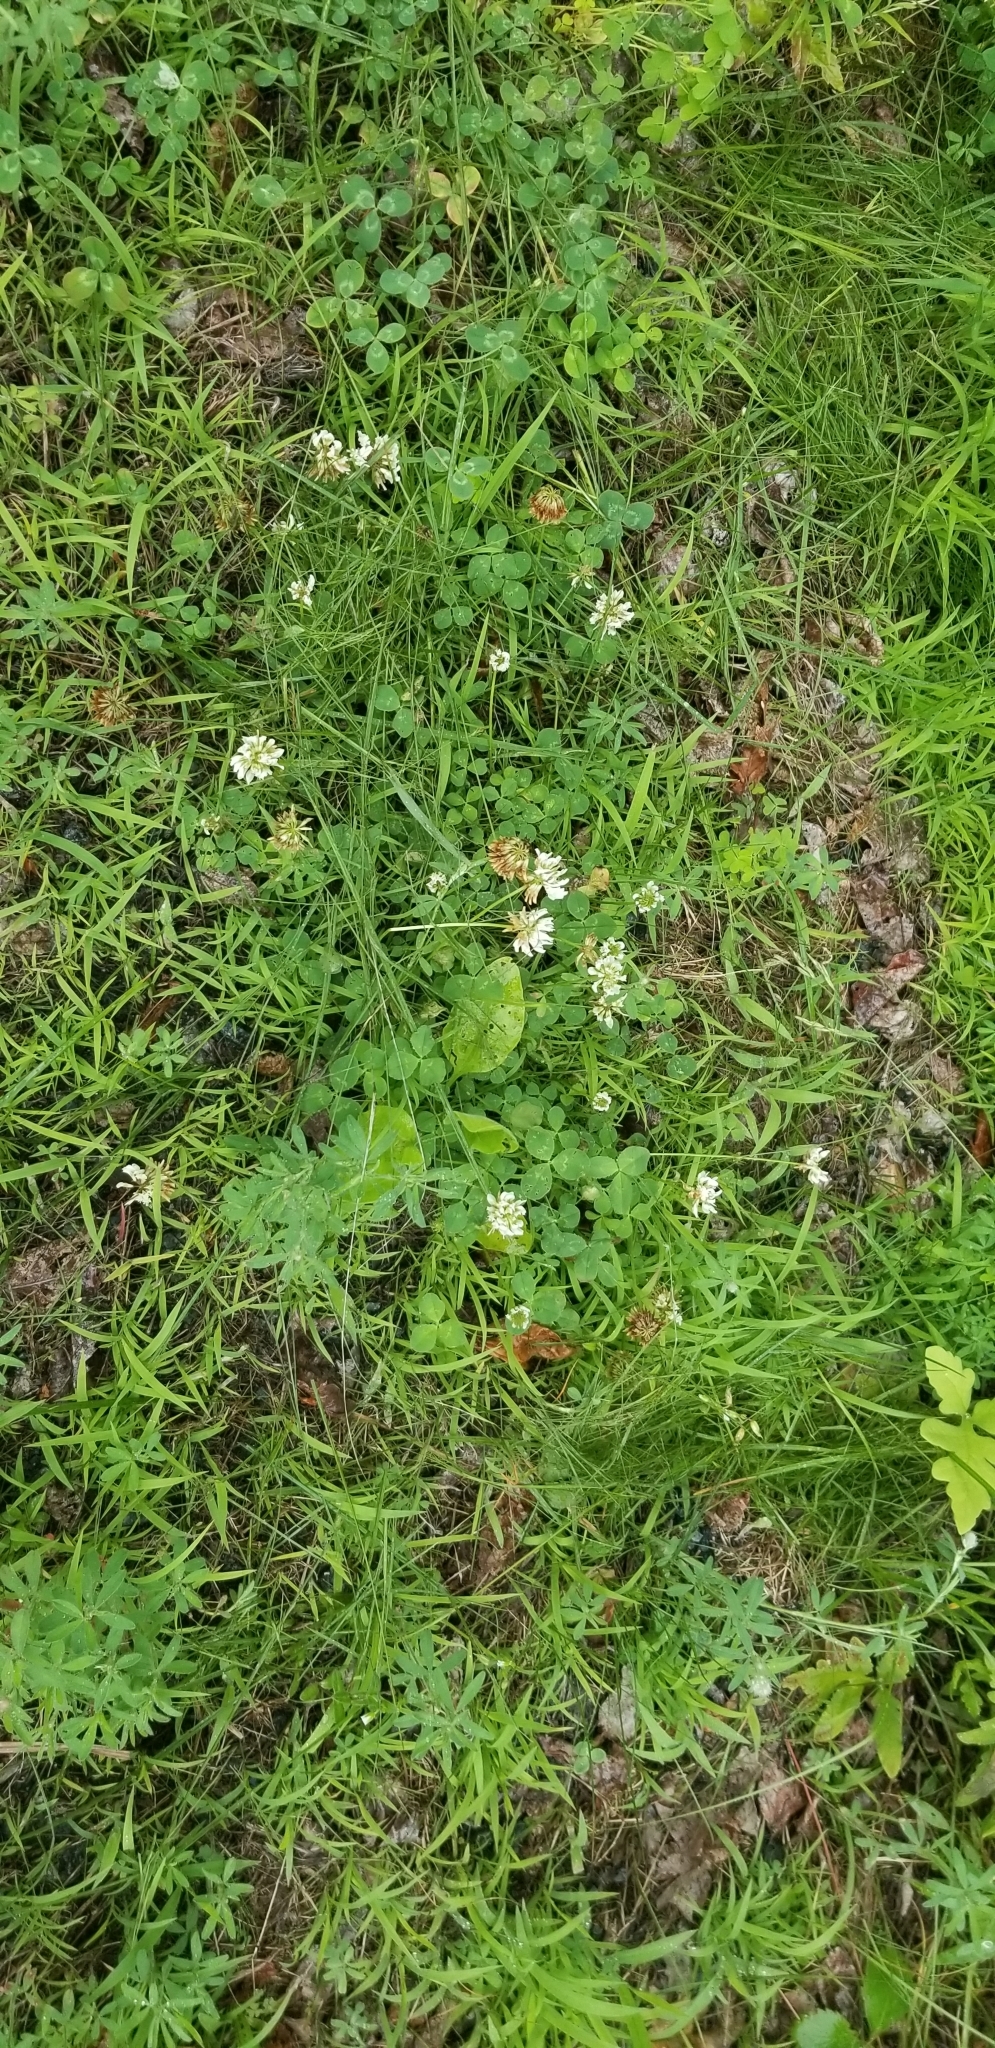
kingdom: Plantae
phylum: Tracheophyta
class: Magnoliopsida
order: Fabales
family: Fabaceae
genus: Trifolium
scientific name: Trifolium repens
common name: White clover
